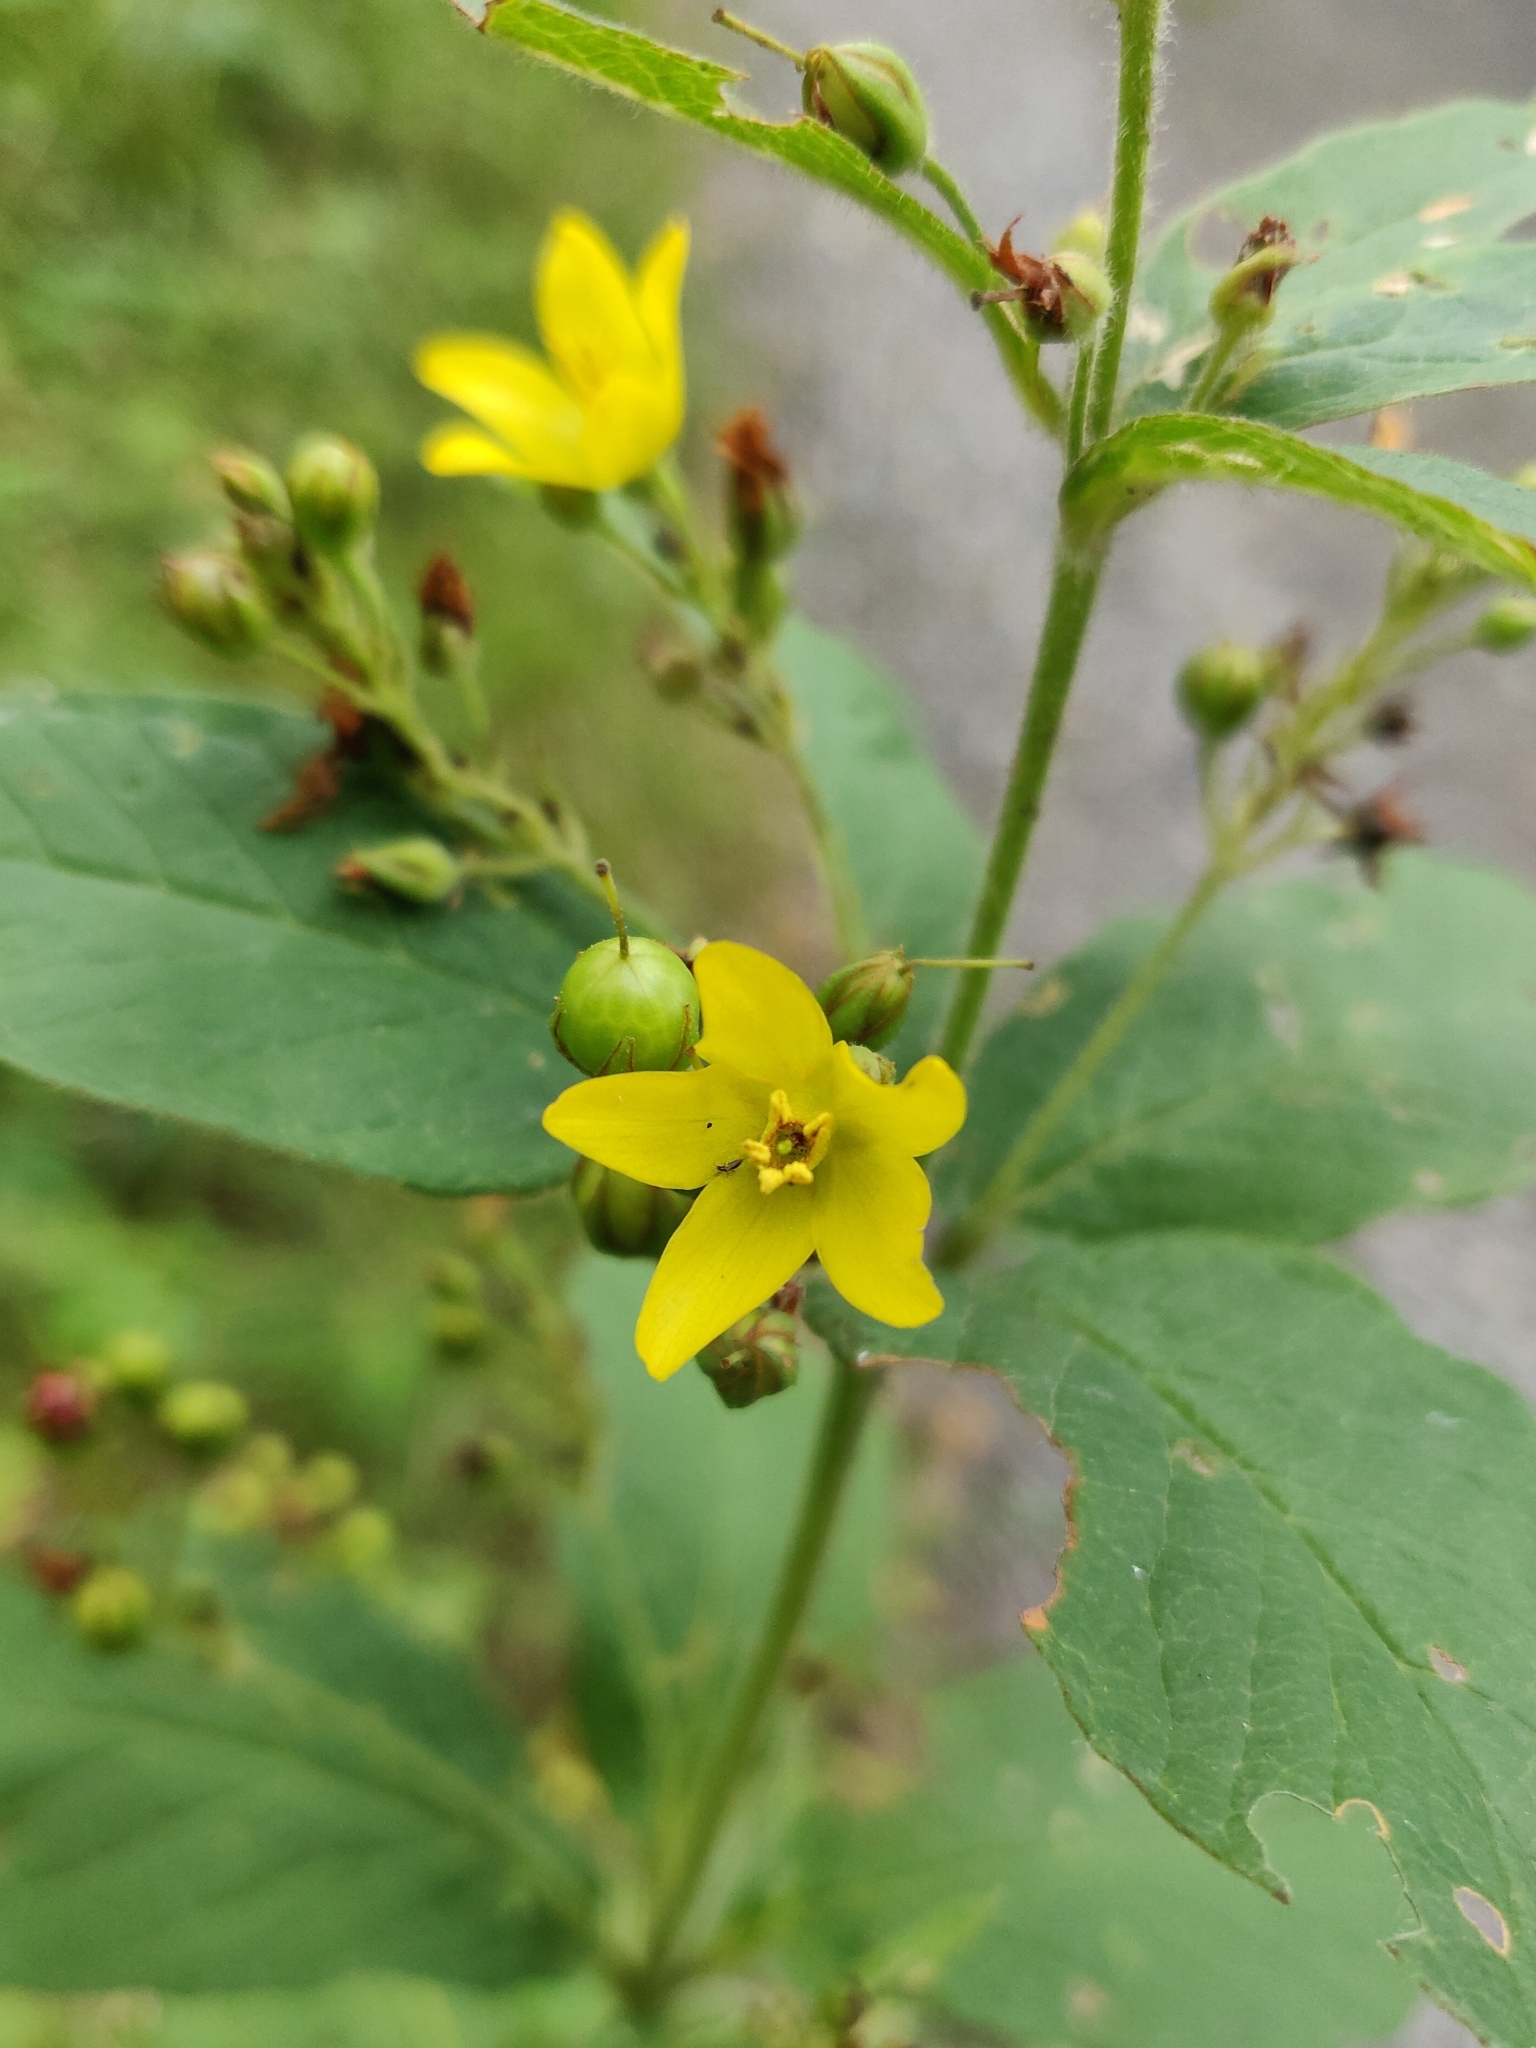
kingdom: Plantae
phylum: Tracheophyta
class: Magnoliopsida
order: Ericales
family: Primulaceae
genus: Lysimachia
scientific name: Lysimachia vulgaris
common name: Yellow loosestrife
